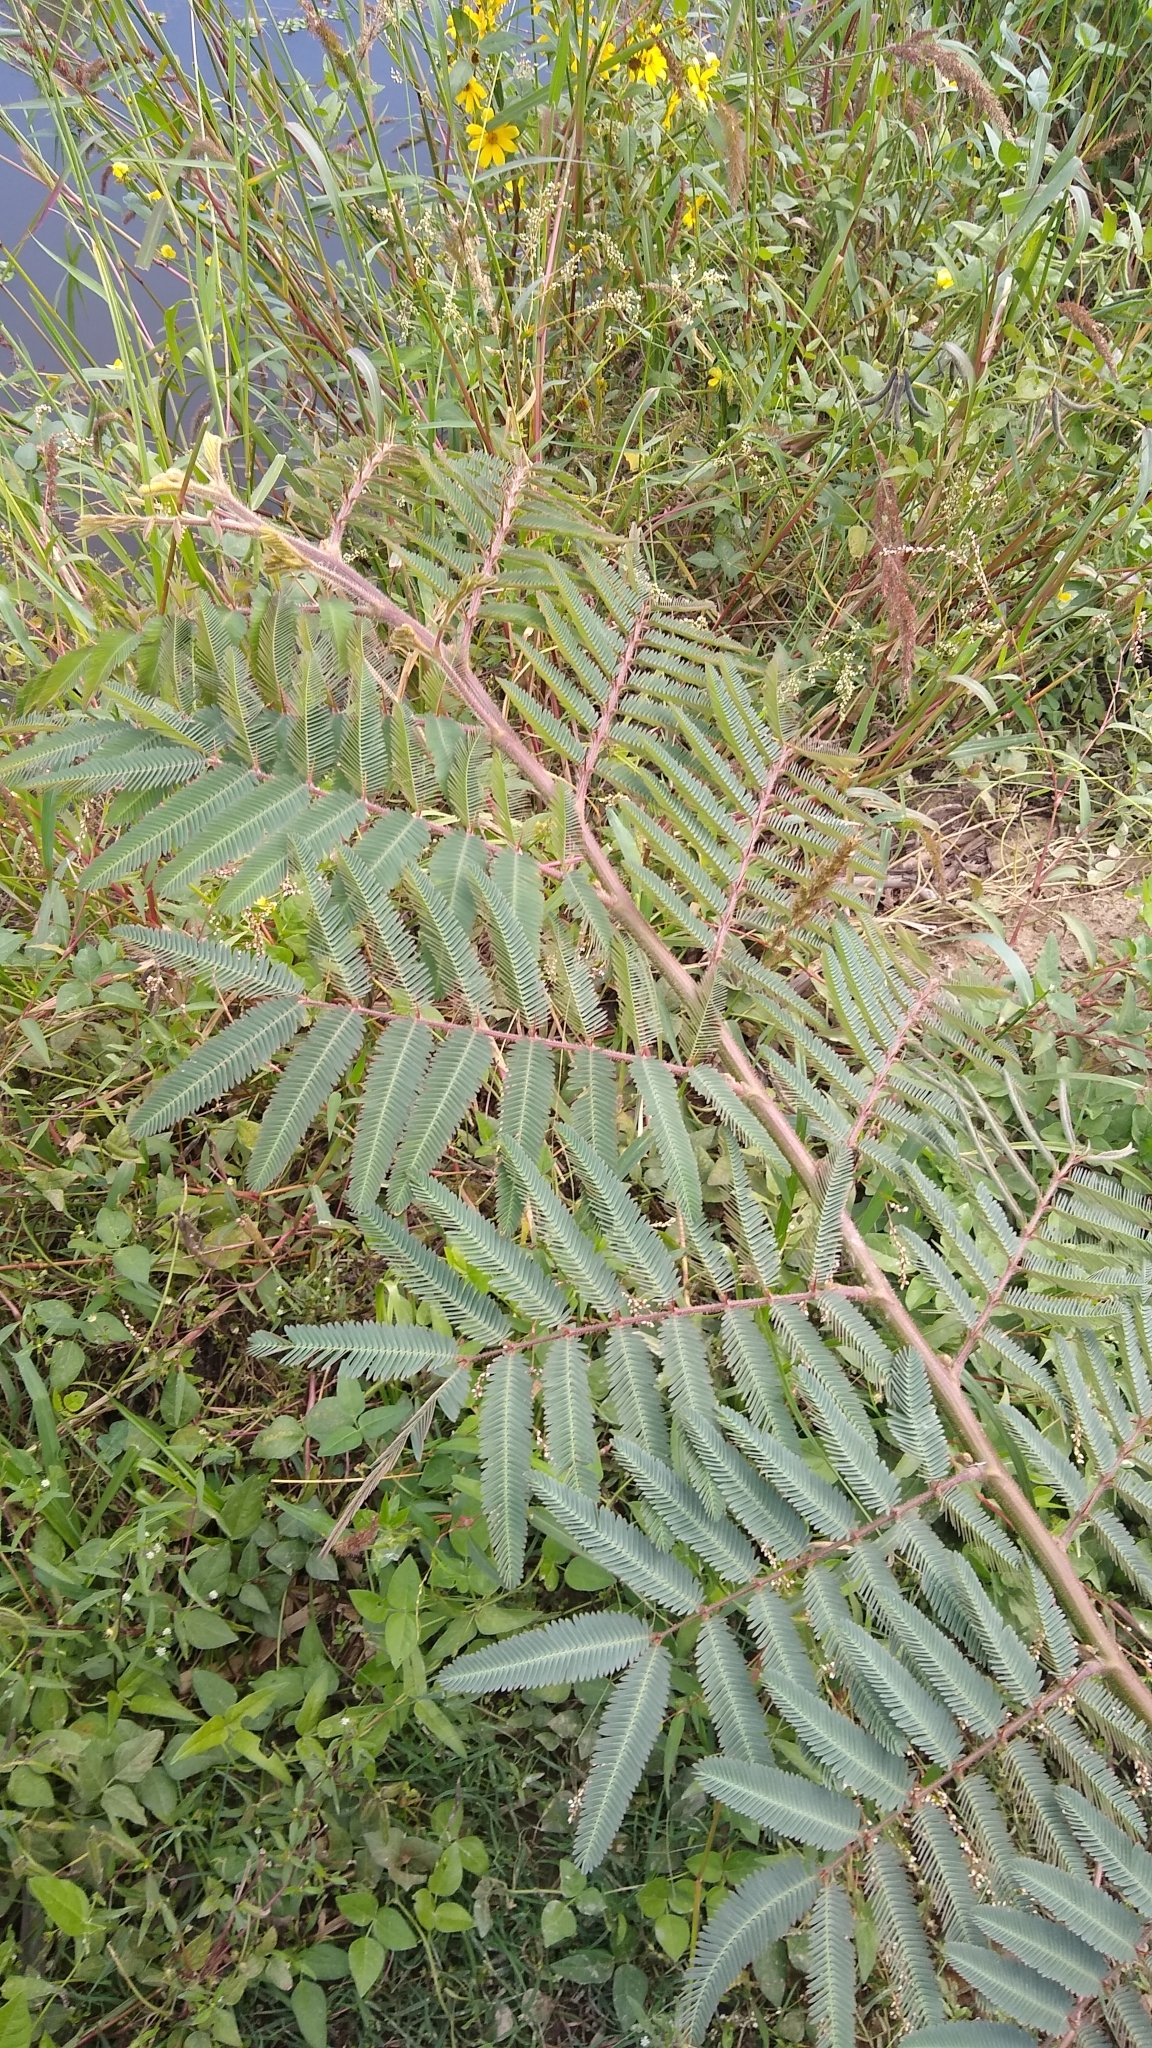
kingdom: Plantae
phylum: Tracheophyta
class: Magnoliopsida
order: Fabales
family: Fabaceae
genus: Mimosa
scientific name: Mimosa pigra
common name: Black mimosa
